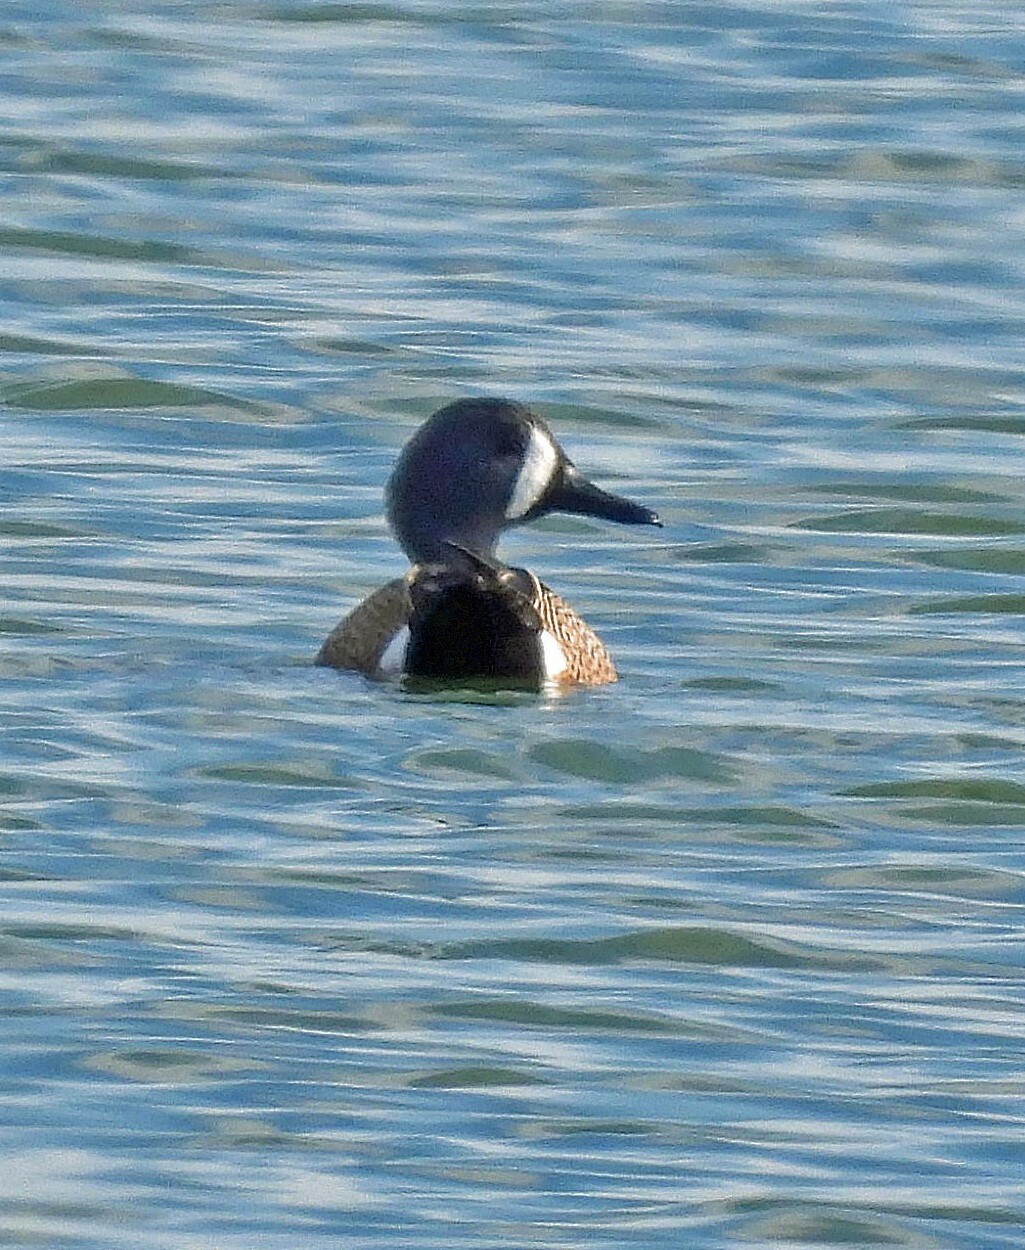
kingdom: Animalia
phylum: Chordata
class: Aves
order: Anseriformes
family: Anatidae
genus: Spatula
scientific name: Spatula discors
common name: Blue-winged teal
